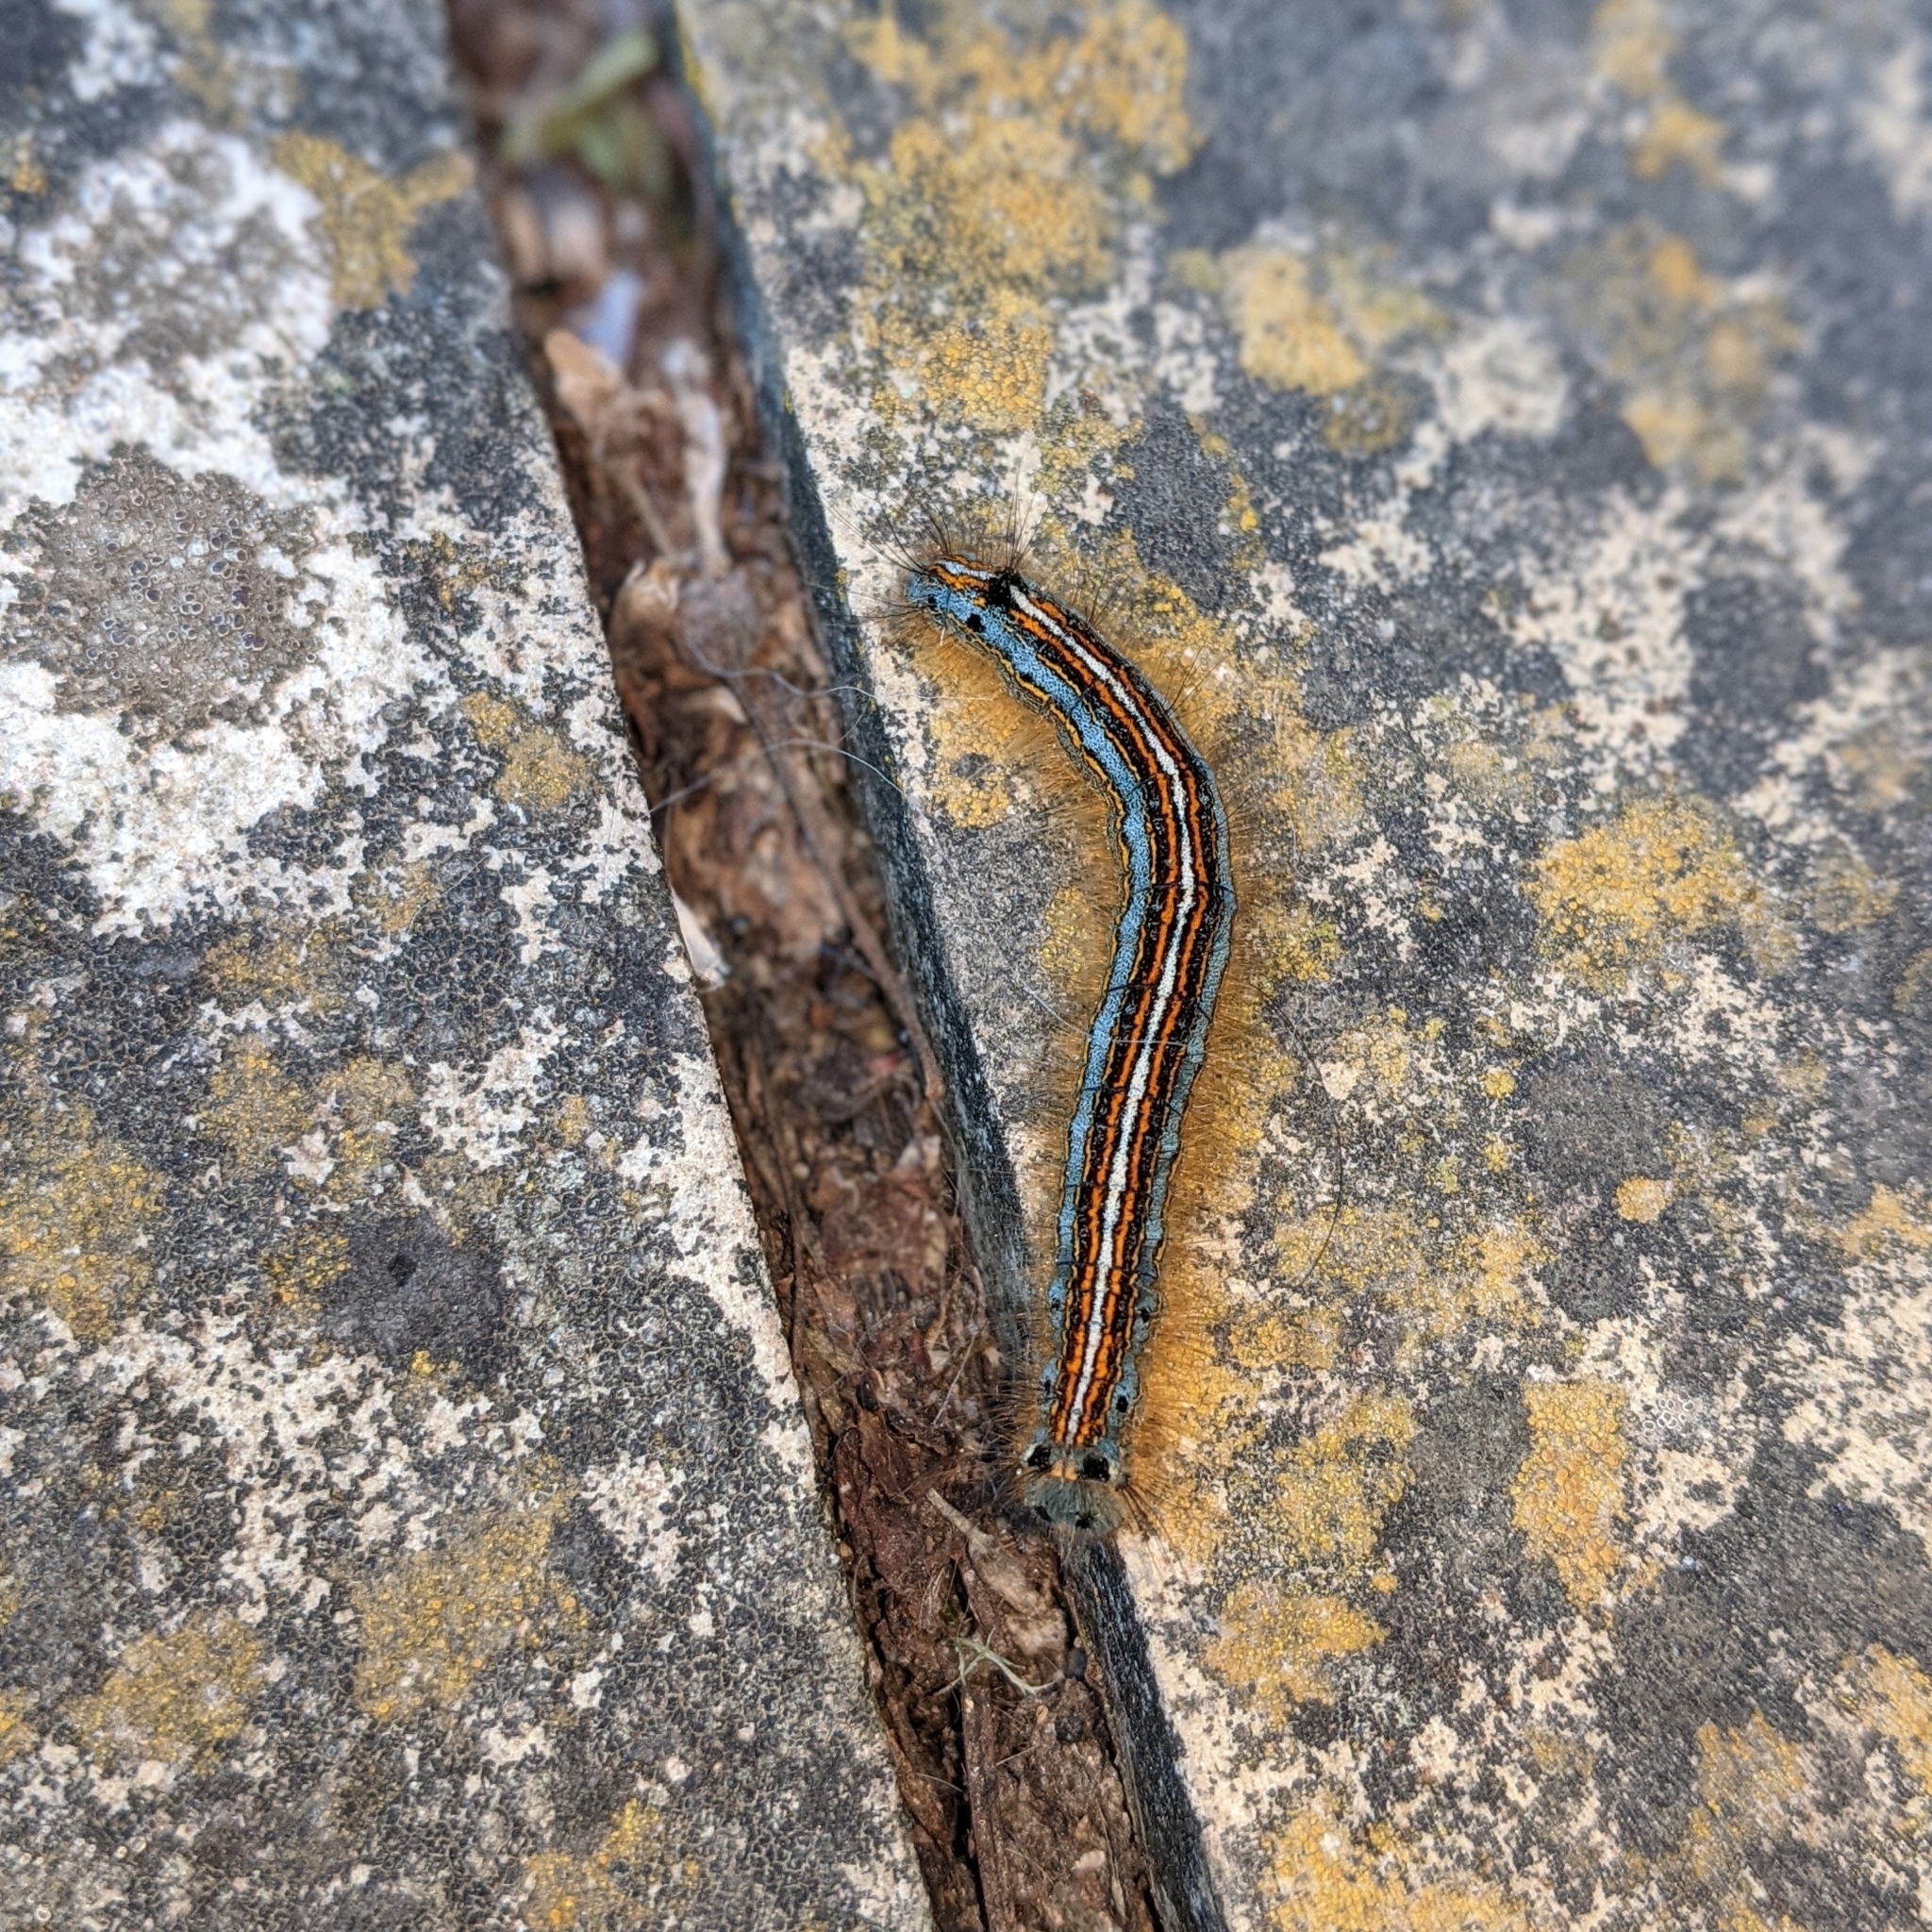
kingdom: Animalia
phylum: Arthropoda
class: Insecta
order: Lepidoptera
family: Lasiocampidae
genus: Malacosoma
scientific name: Malacosoma neustria
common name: The lackey
